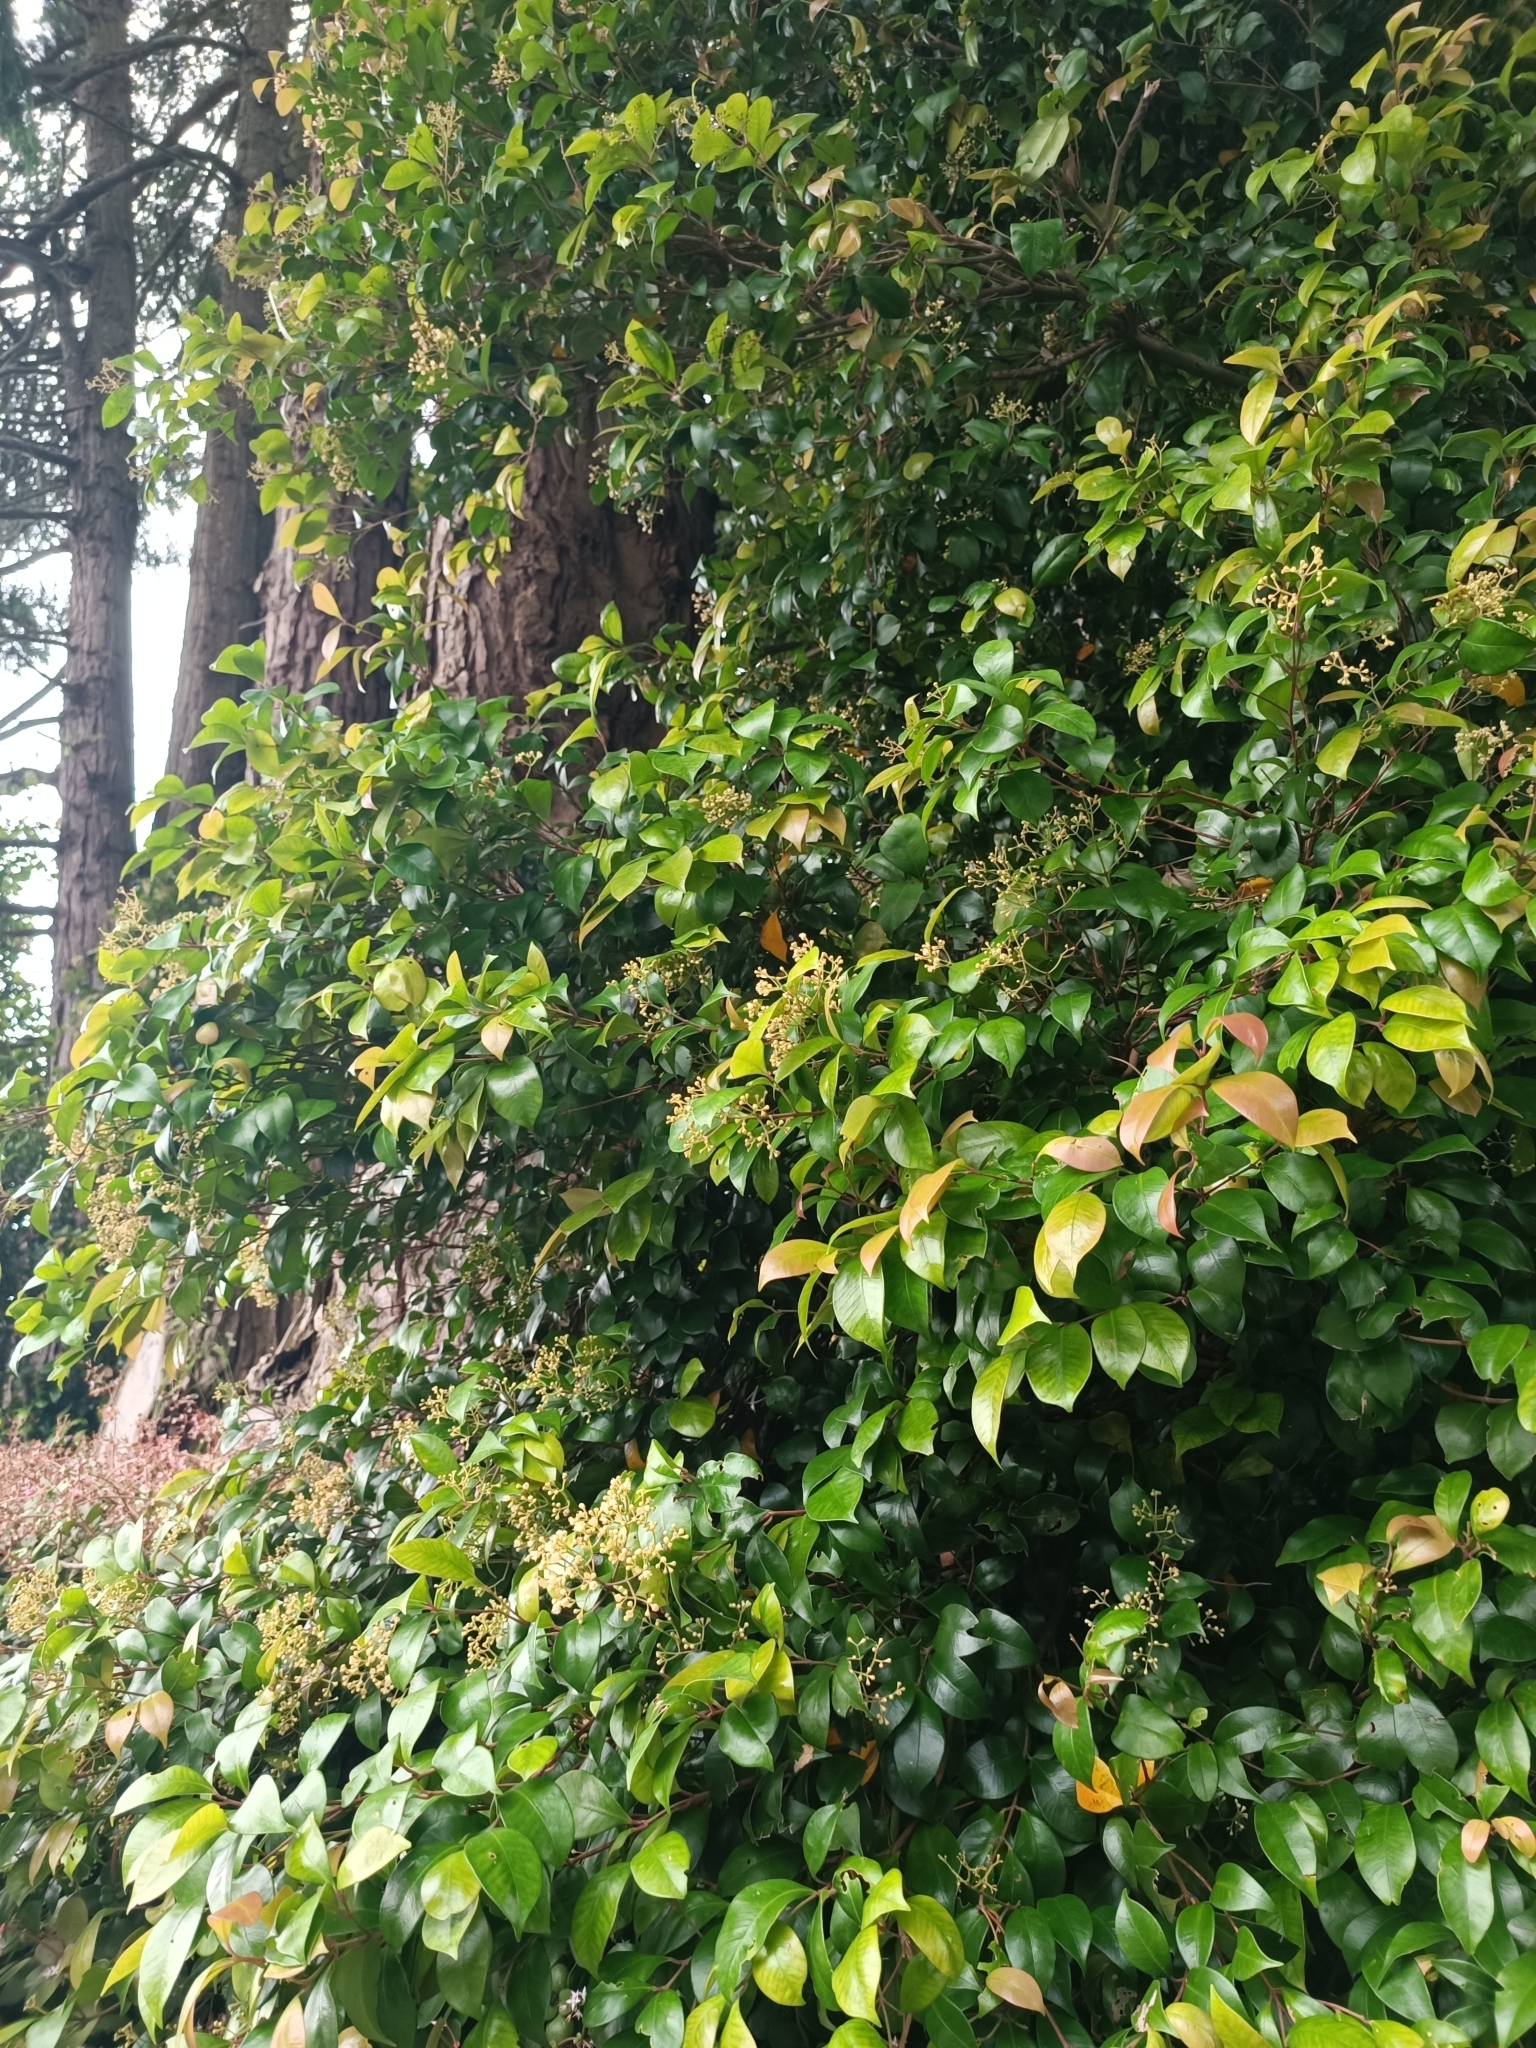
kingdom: Plantae
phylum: Tracheophyta
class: Magnoliopsida
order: Myrtales
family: Myrtaceae
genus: Syzygium
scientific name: Syzygium smithii
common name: Lilly-pilly
